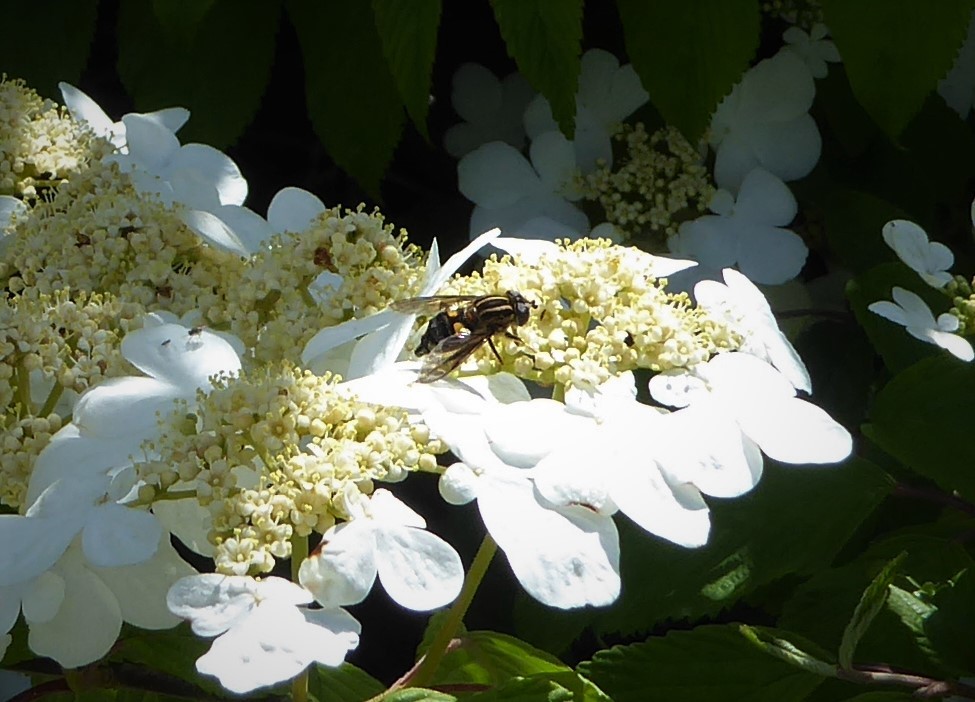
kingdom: Animalia
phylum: Arthropoda
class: Insecta
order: Diptera
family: Syrphidae
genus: Helophilus
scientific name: Helophilus antipodus
